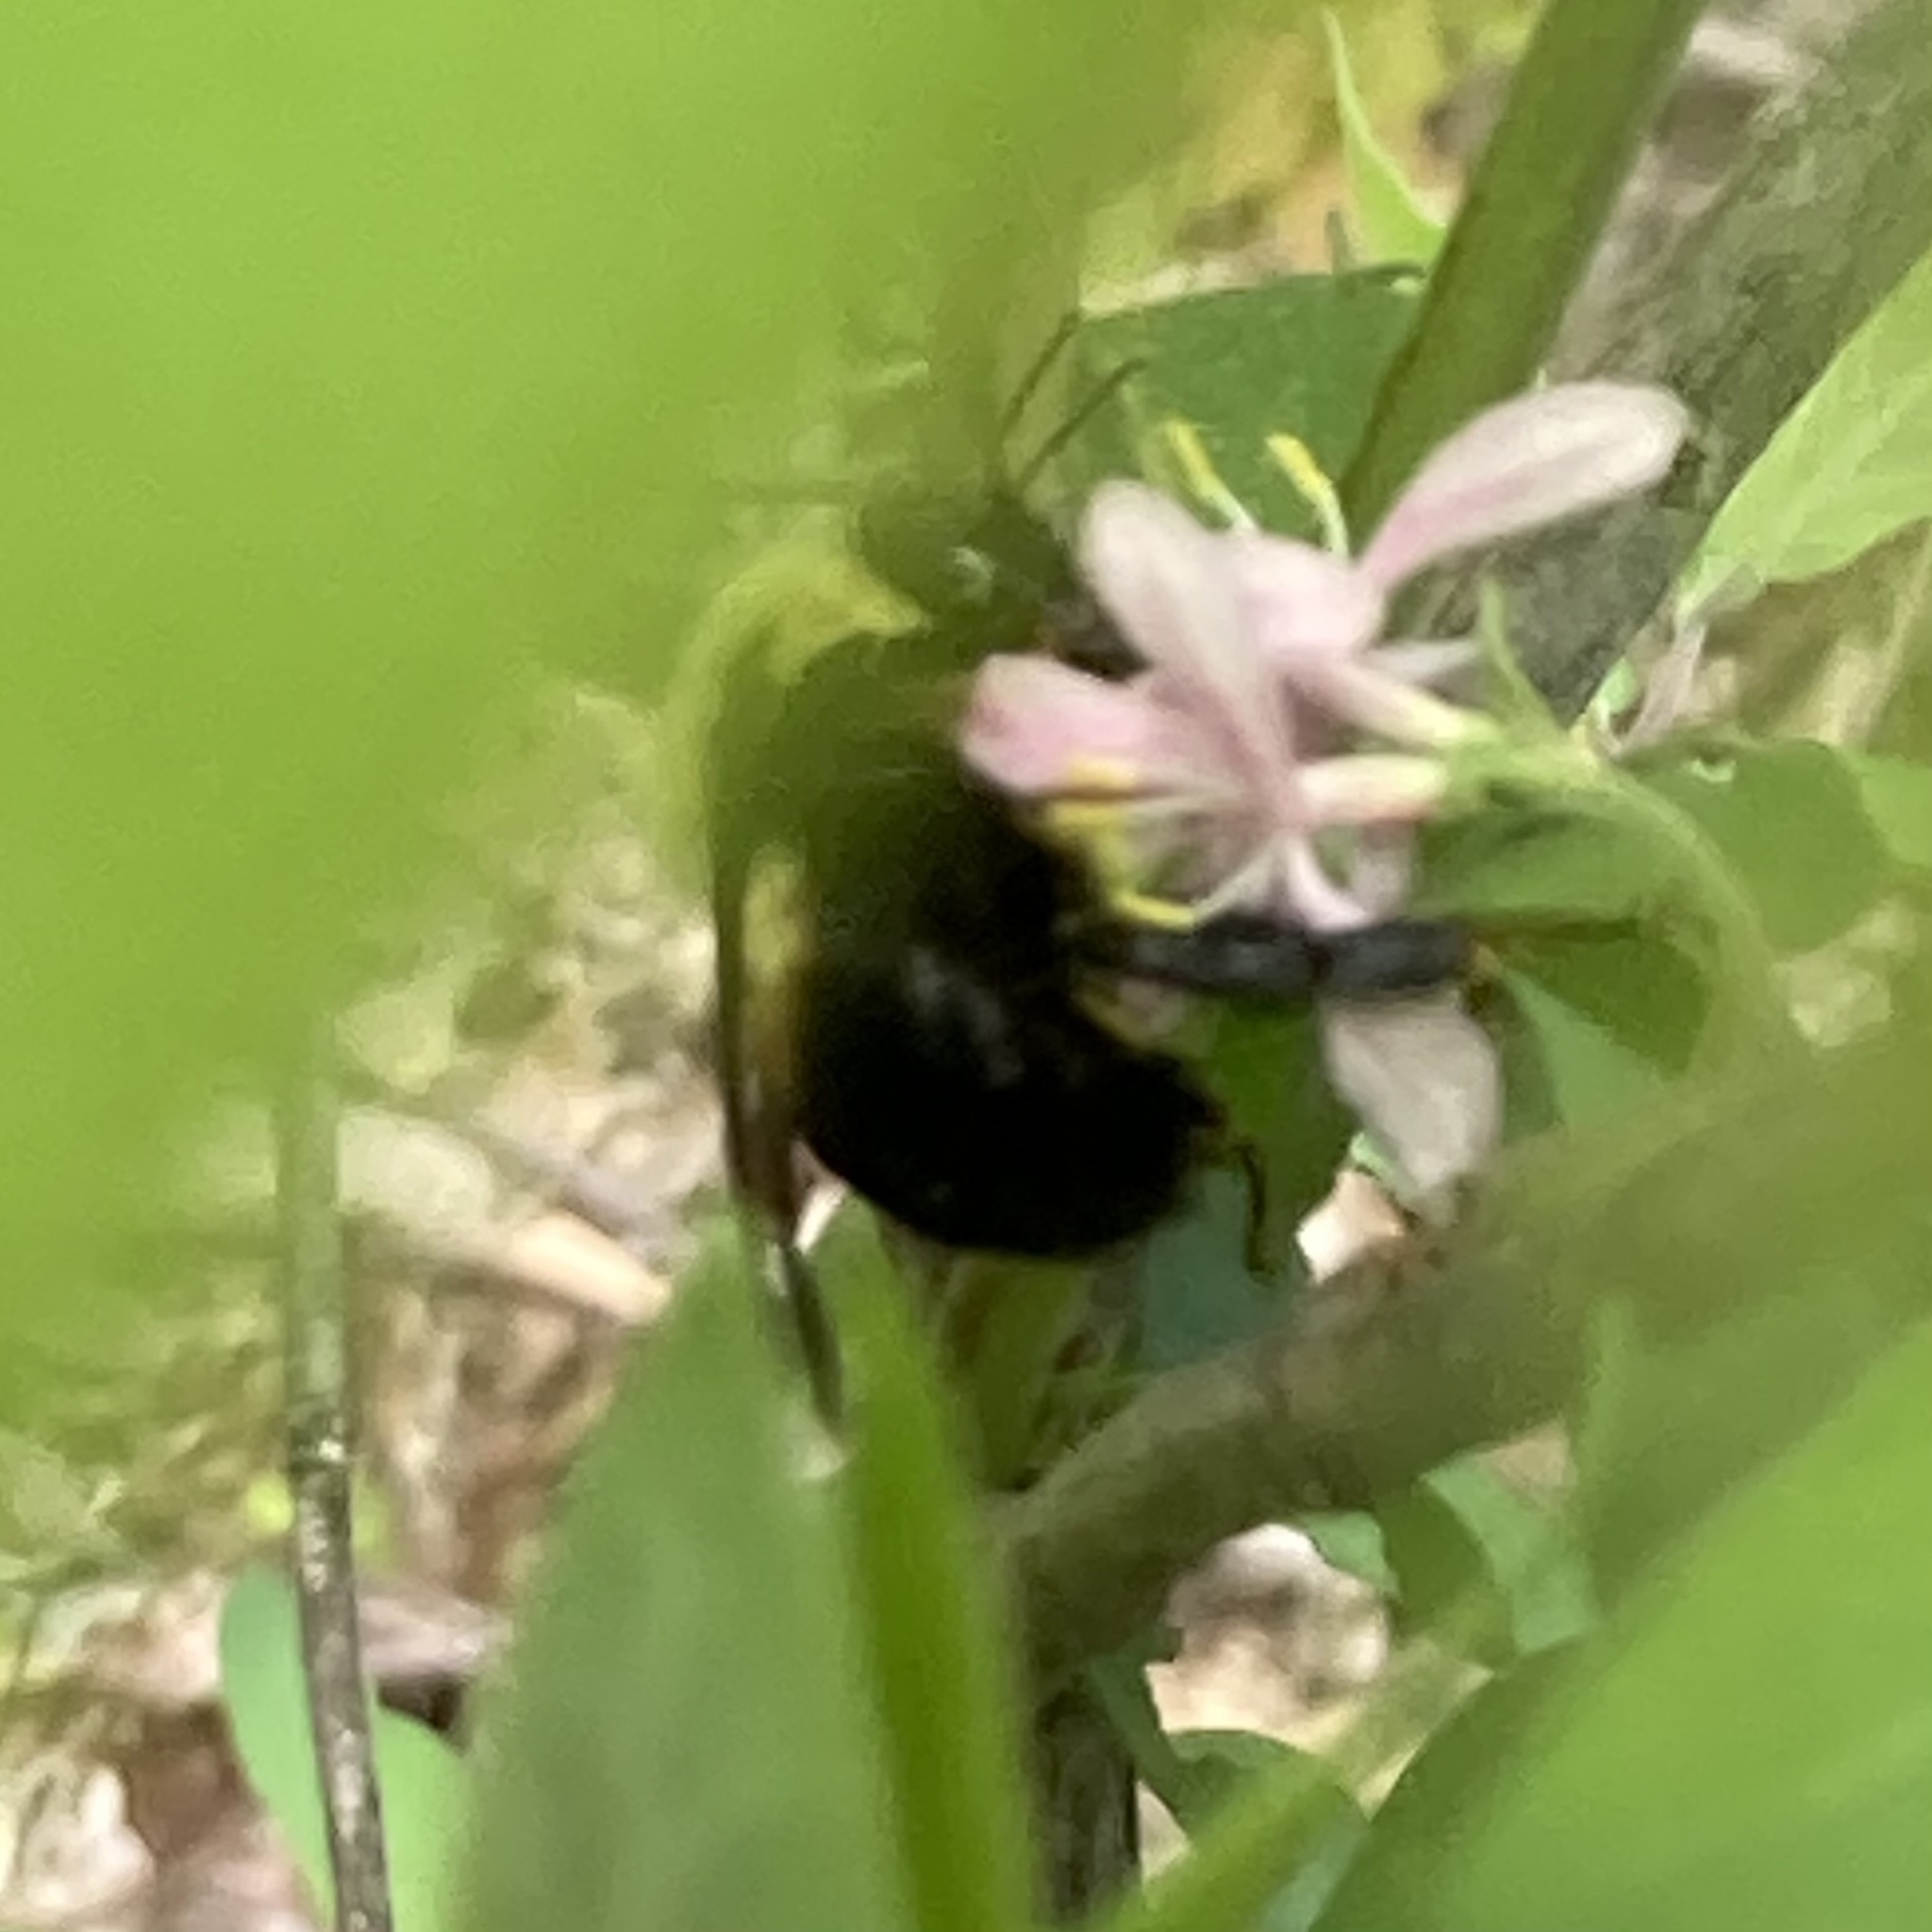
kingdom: Animalia
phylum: Arthropoda
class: Insecta
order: Hymenoptera
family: Apidae
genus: Bombus
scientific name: Bombus griseocollis
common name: Brown-belted bumble bee
